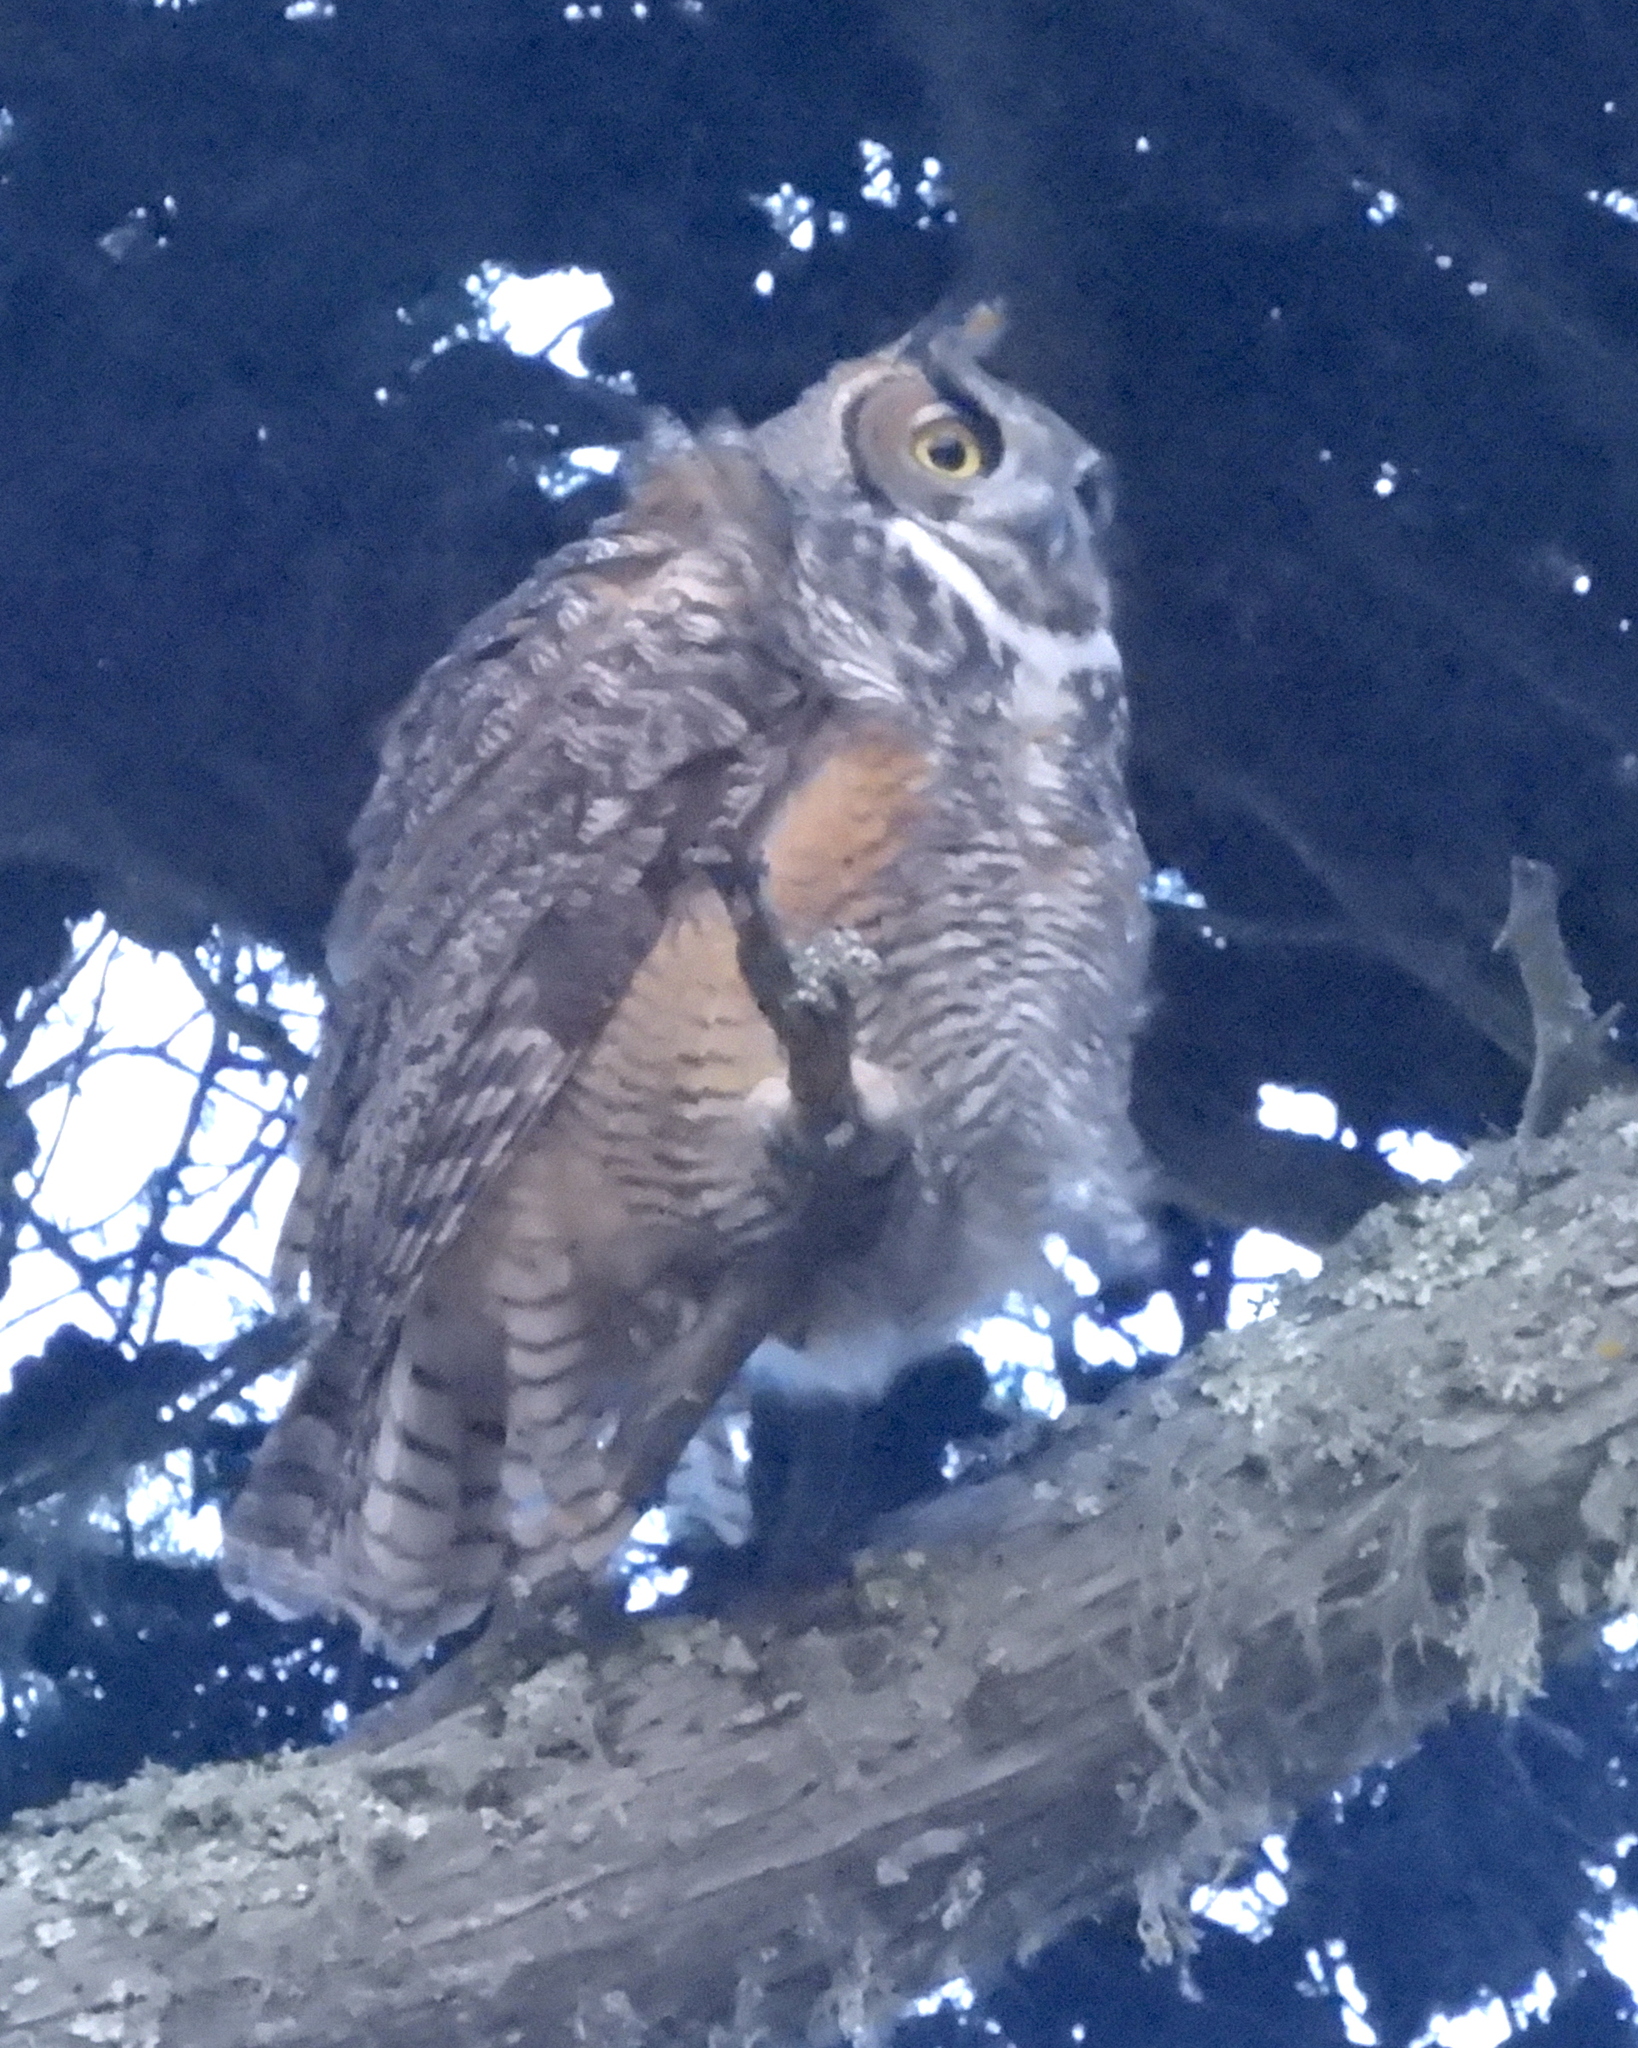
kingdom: Animalia
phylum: Chordata
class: Aves
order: Strigiformes
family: Strigidae
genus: Bubo
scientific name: Bubo virginianus
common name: Great horned owl
